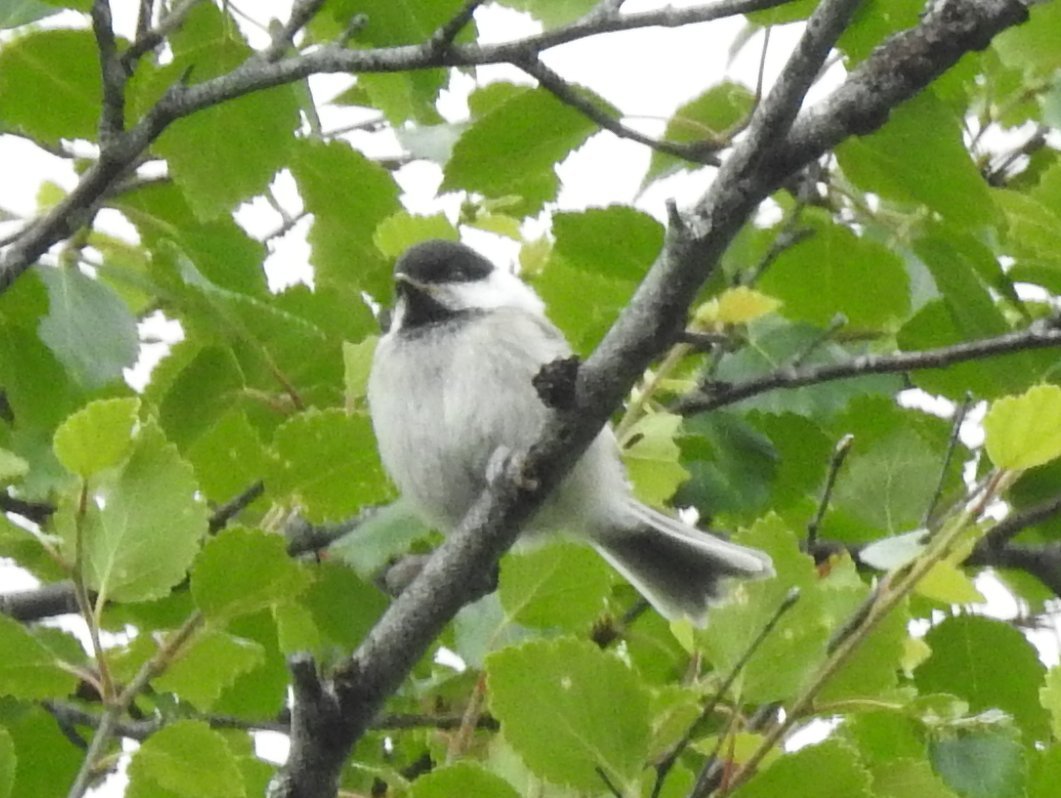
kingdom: Animalia
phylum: Chordata
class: Aves
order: Passeriformes
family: Paridae
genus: Poecile
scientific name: Poecile montanus
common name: Willow tit
